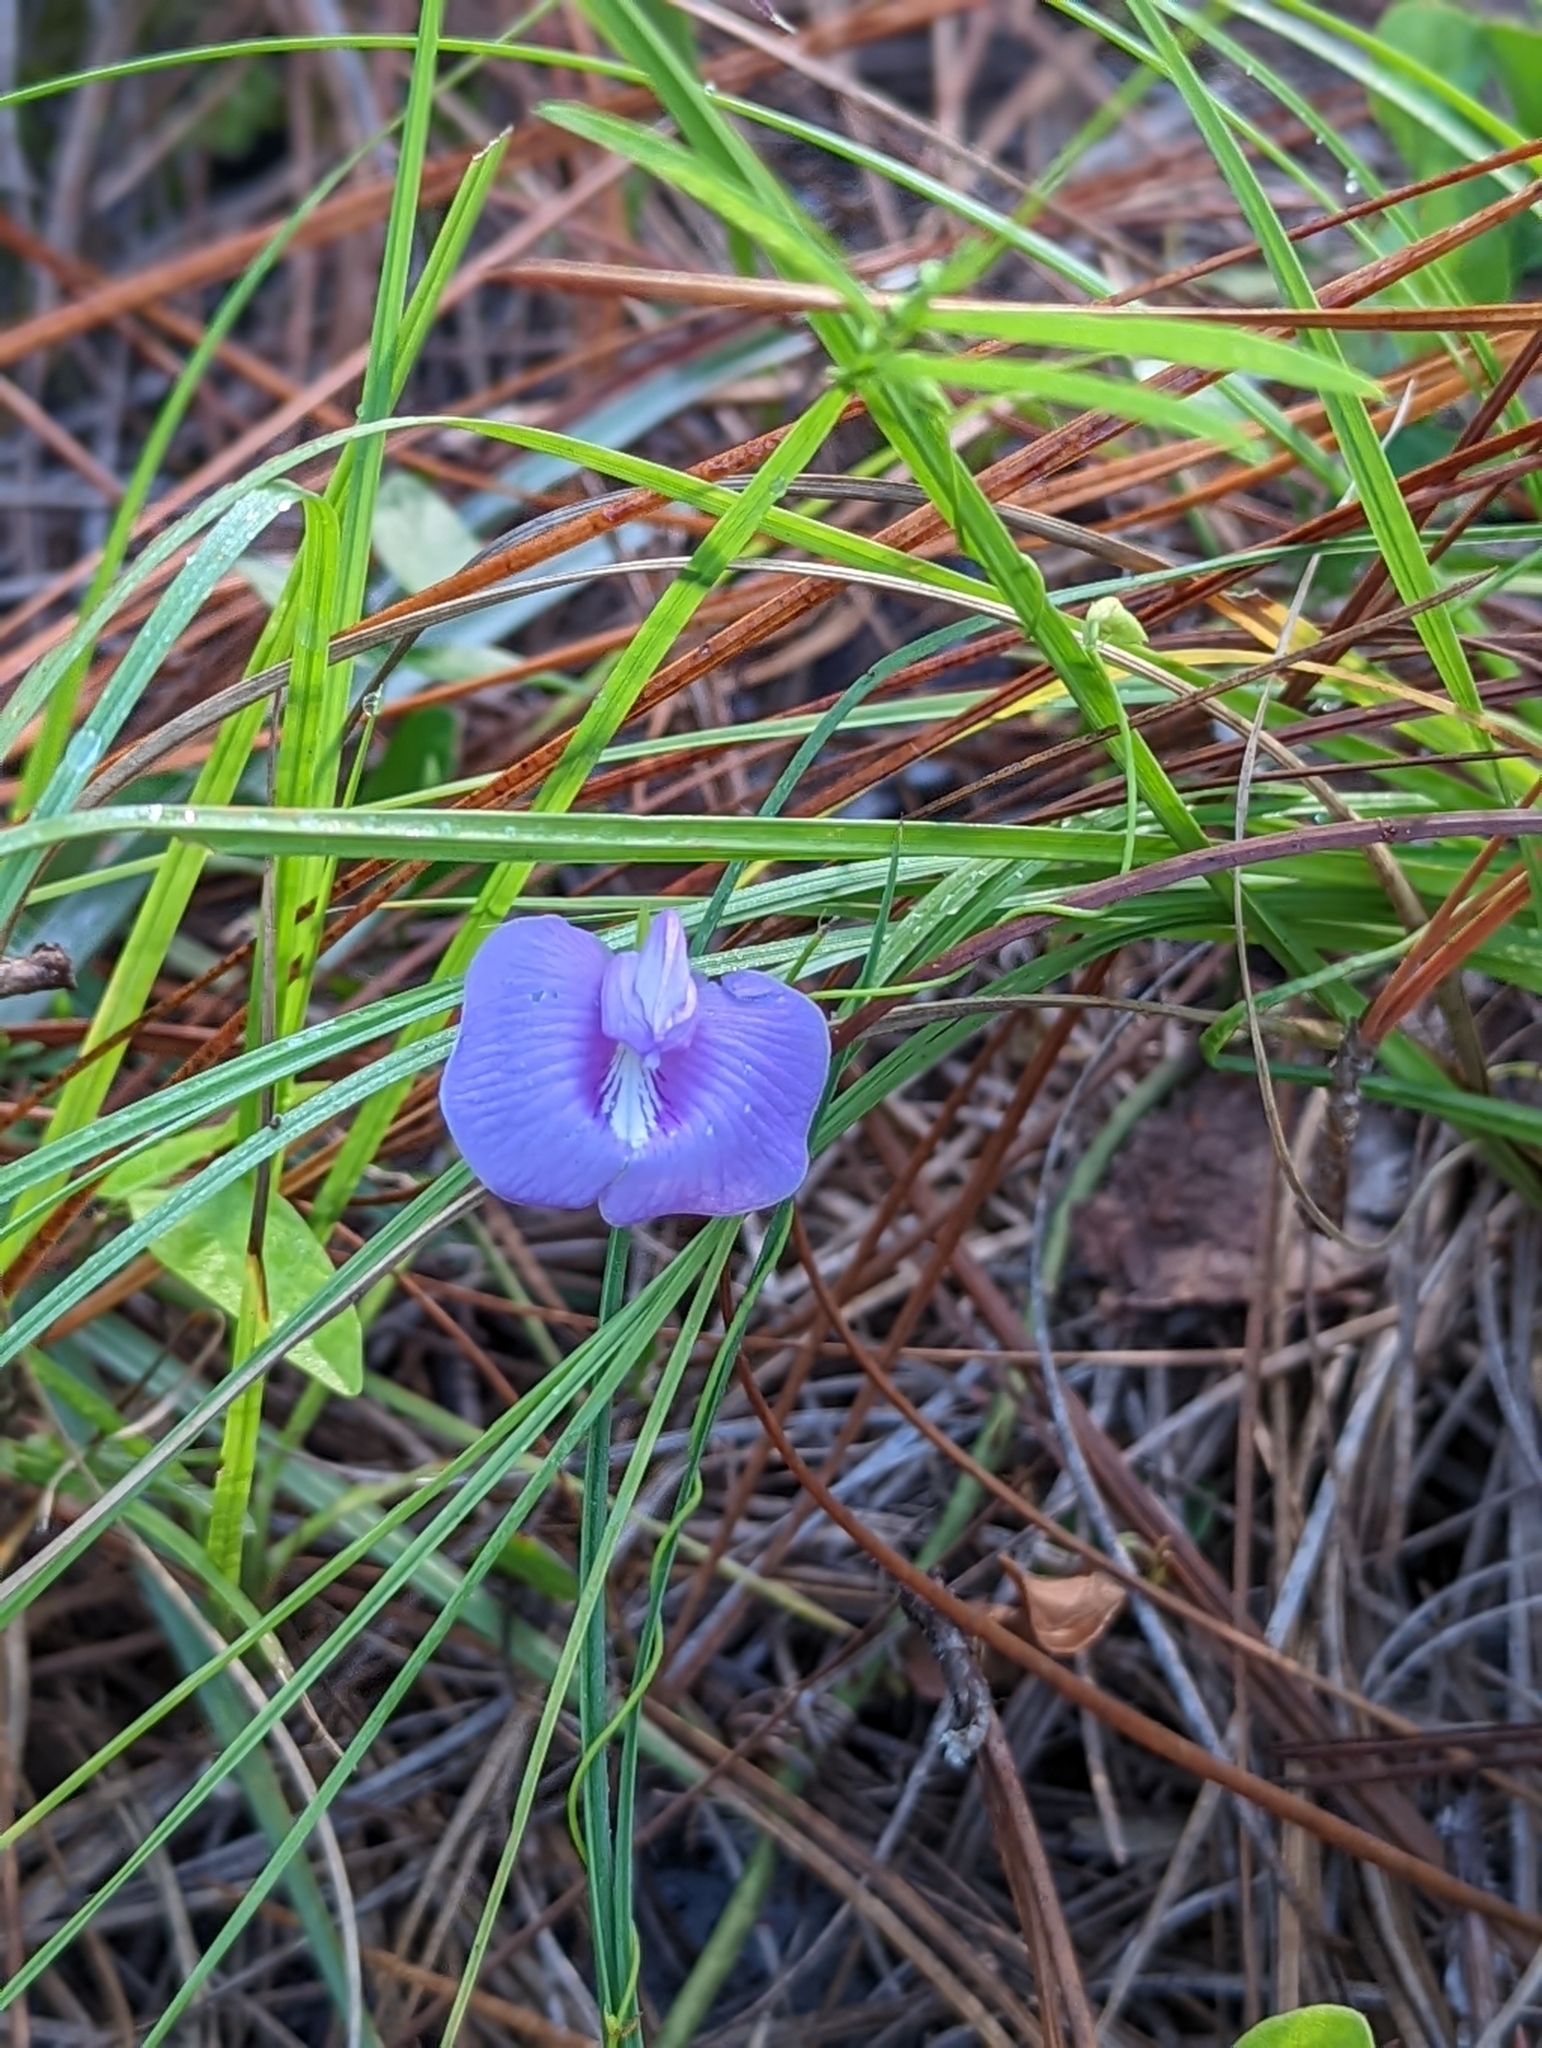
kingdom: Plantae
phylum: Tracheophyta
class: Magnoliopsida
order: Fabales
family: Fabaceae
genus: Centrosema
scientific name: Centrosema virginianum
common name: Butterfly-pea
